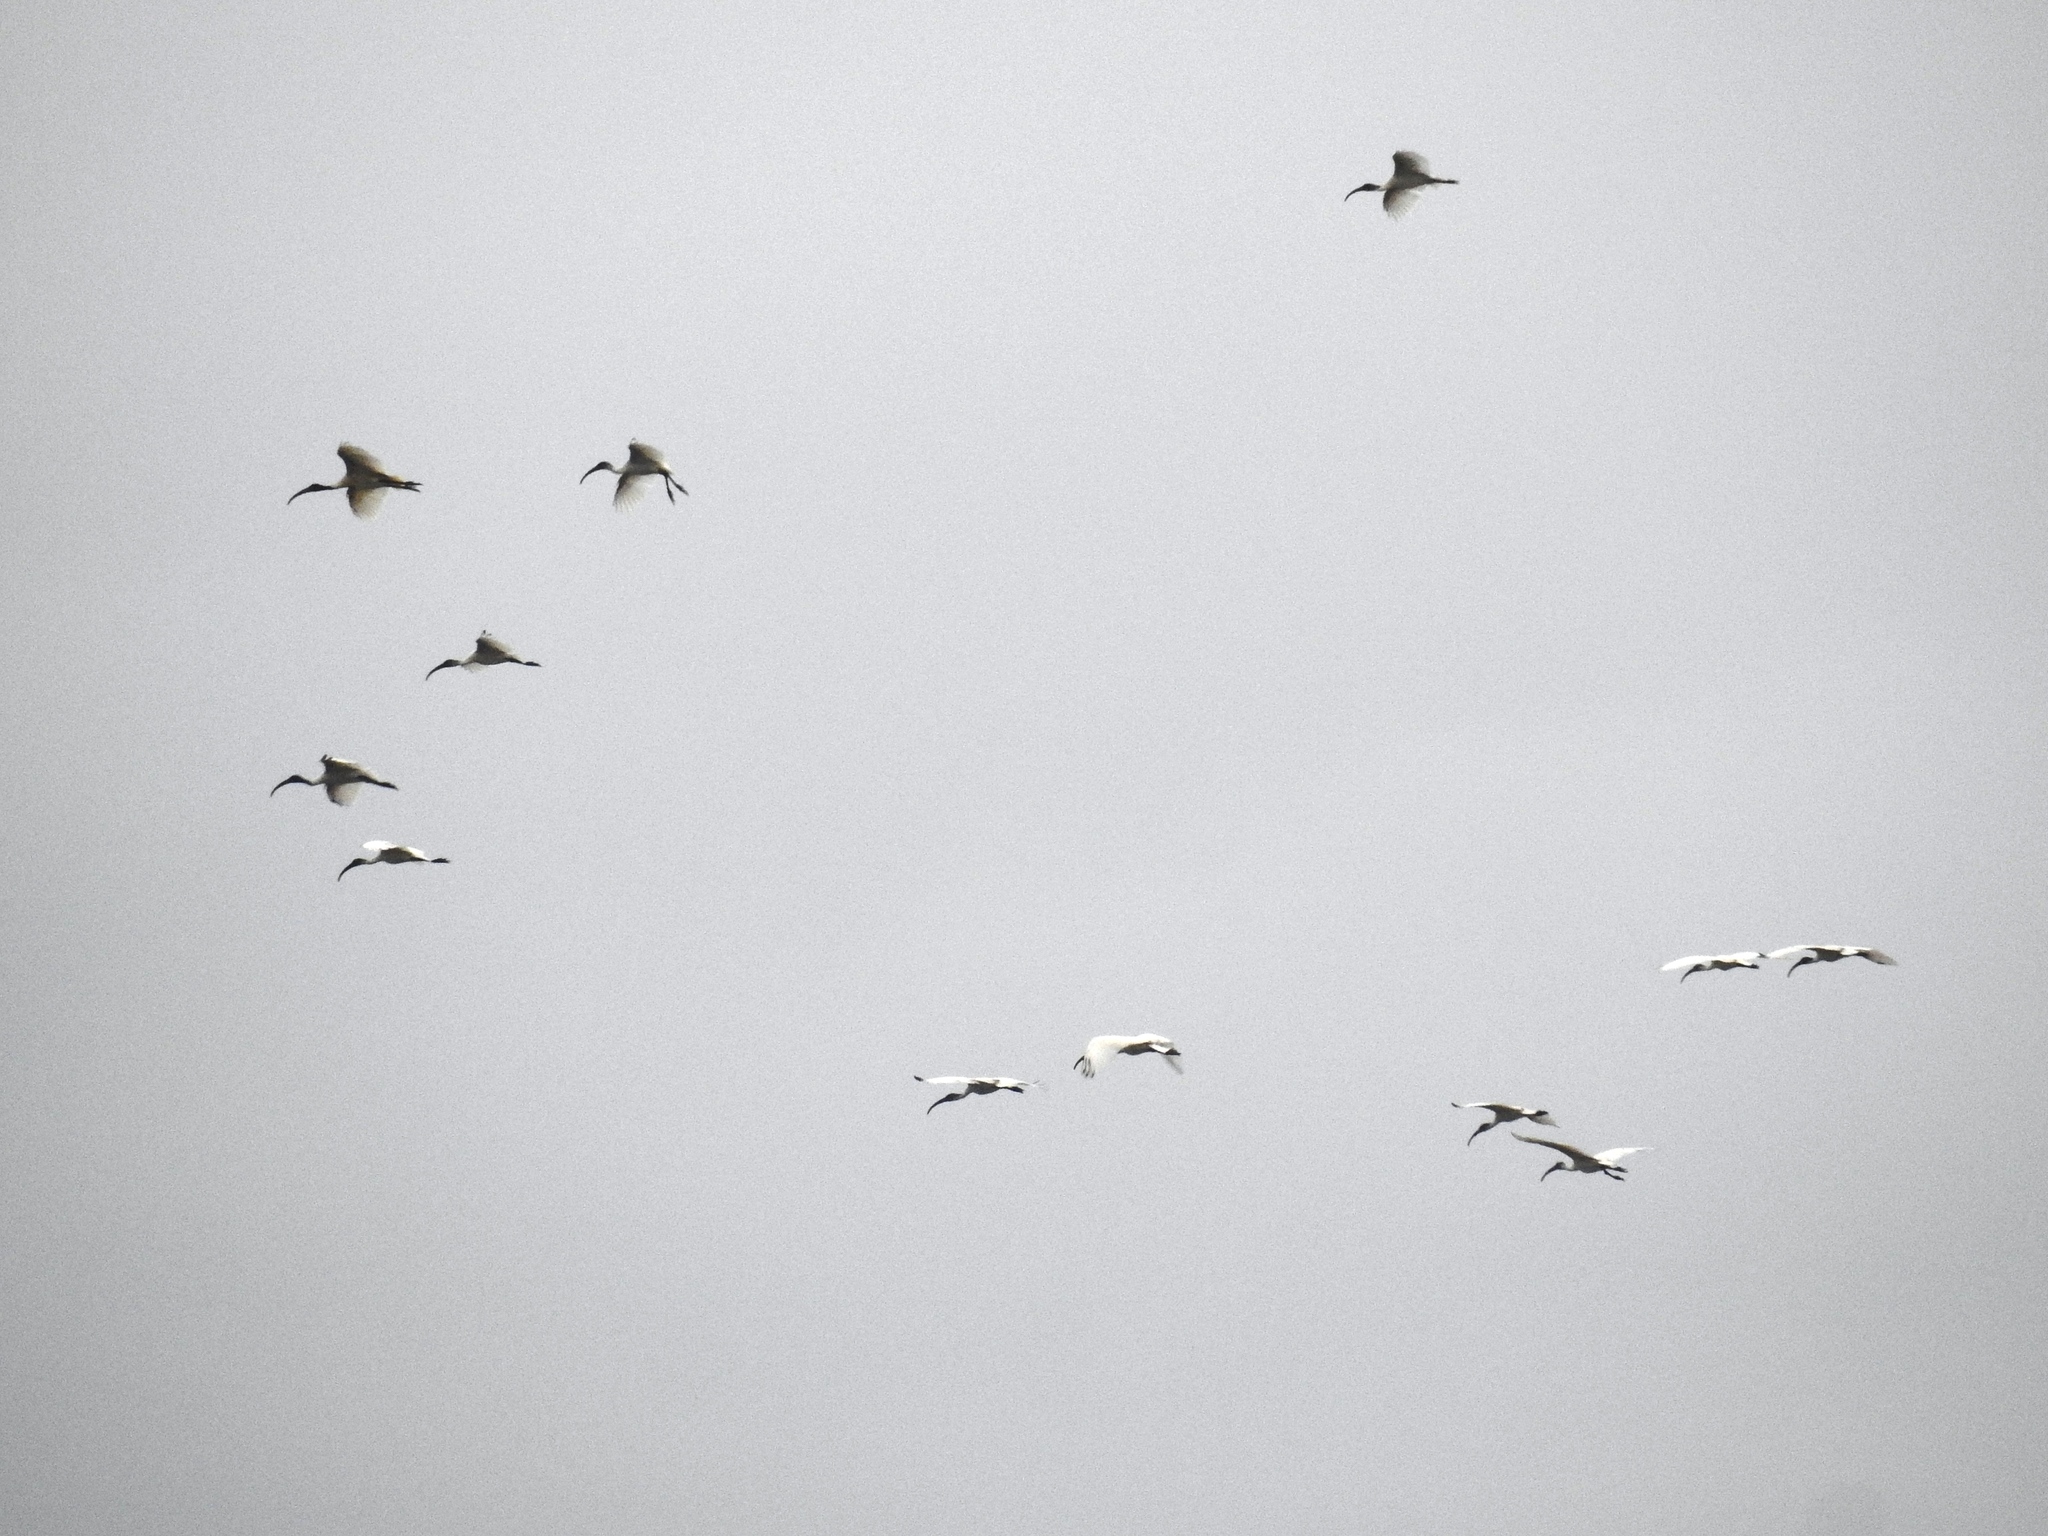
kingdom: Animalia
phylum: Chordata
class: Aves
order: Pelecaniformes
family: Threskiornithidae
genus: Threskiornis
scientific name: Threskiornis melanocephalus
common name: Black-headed ibis
